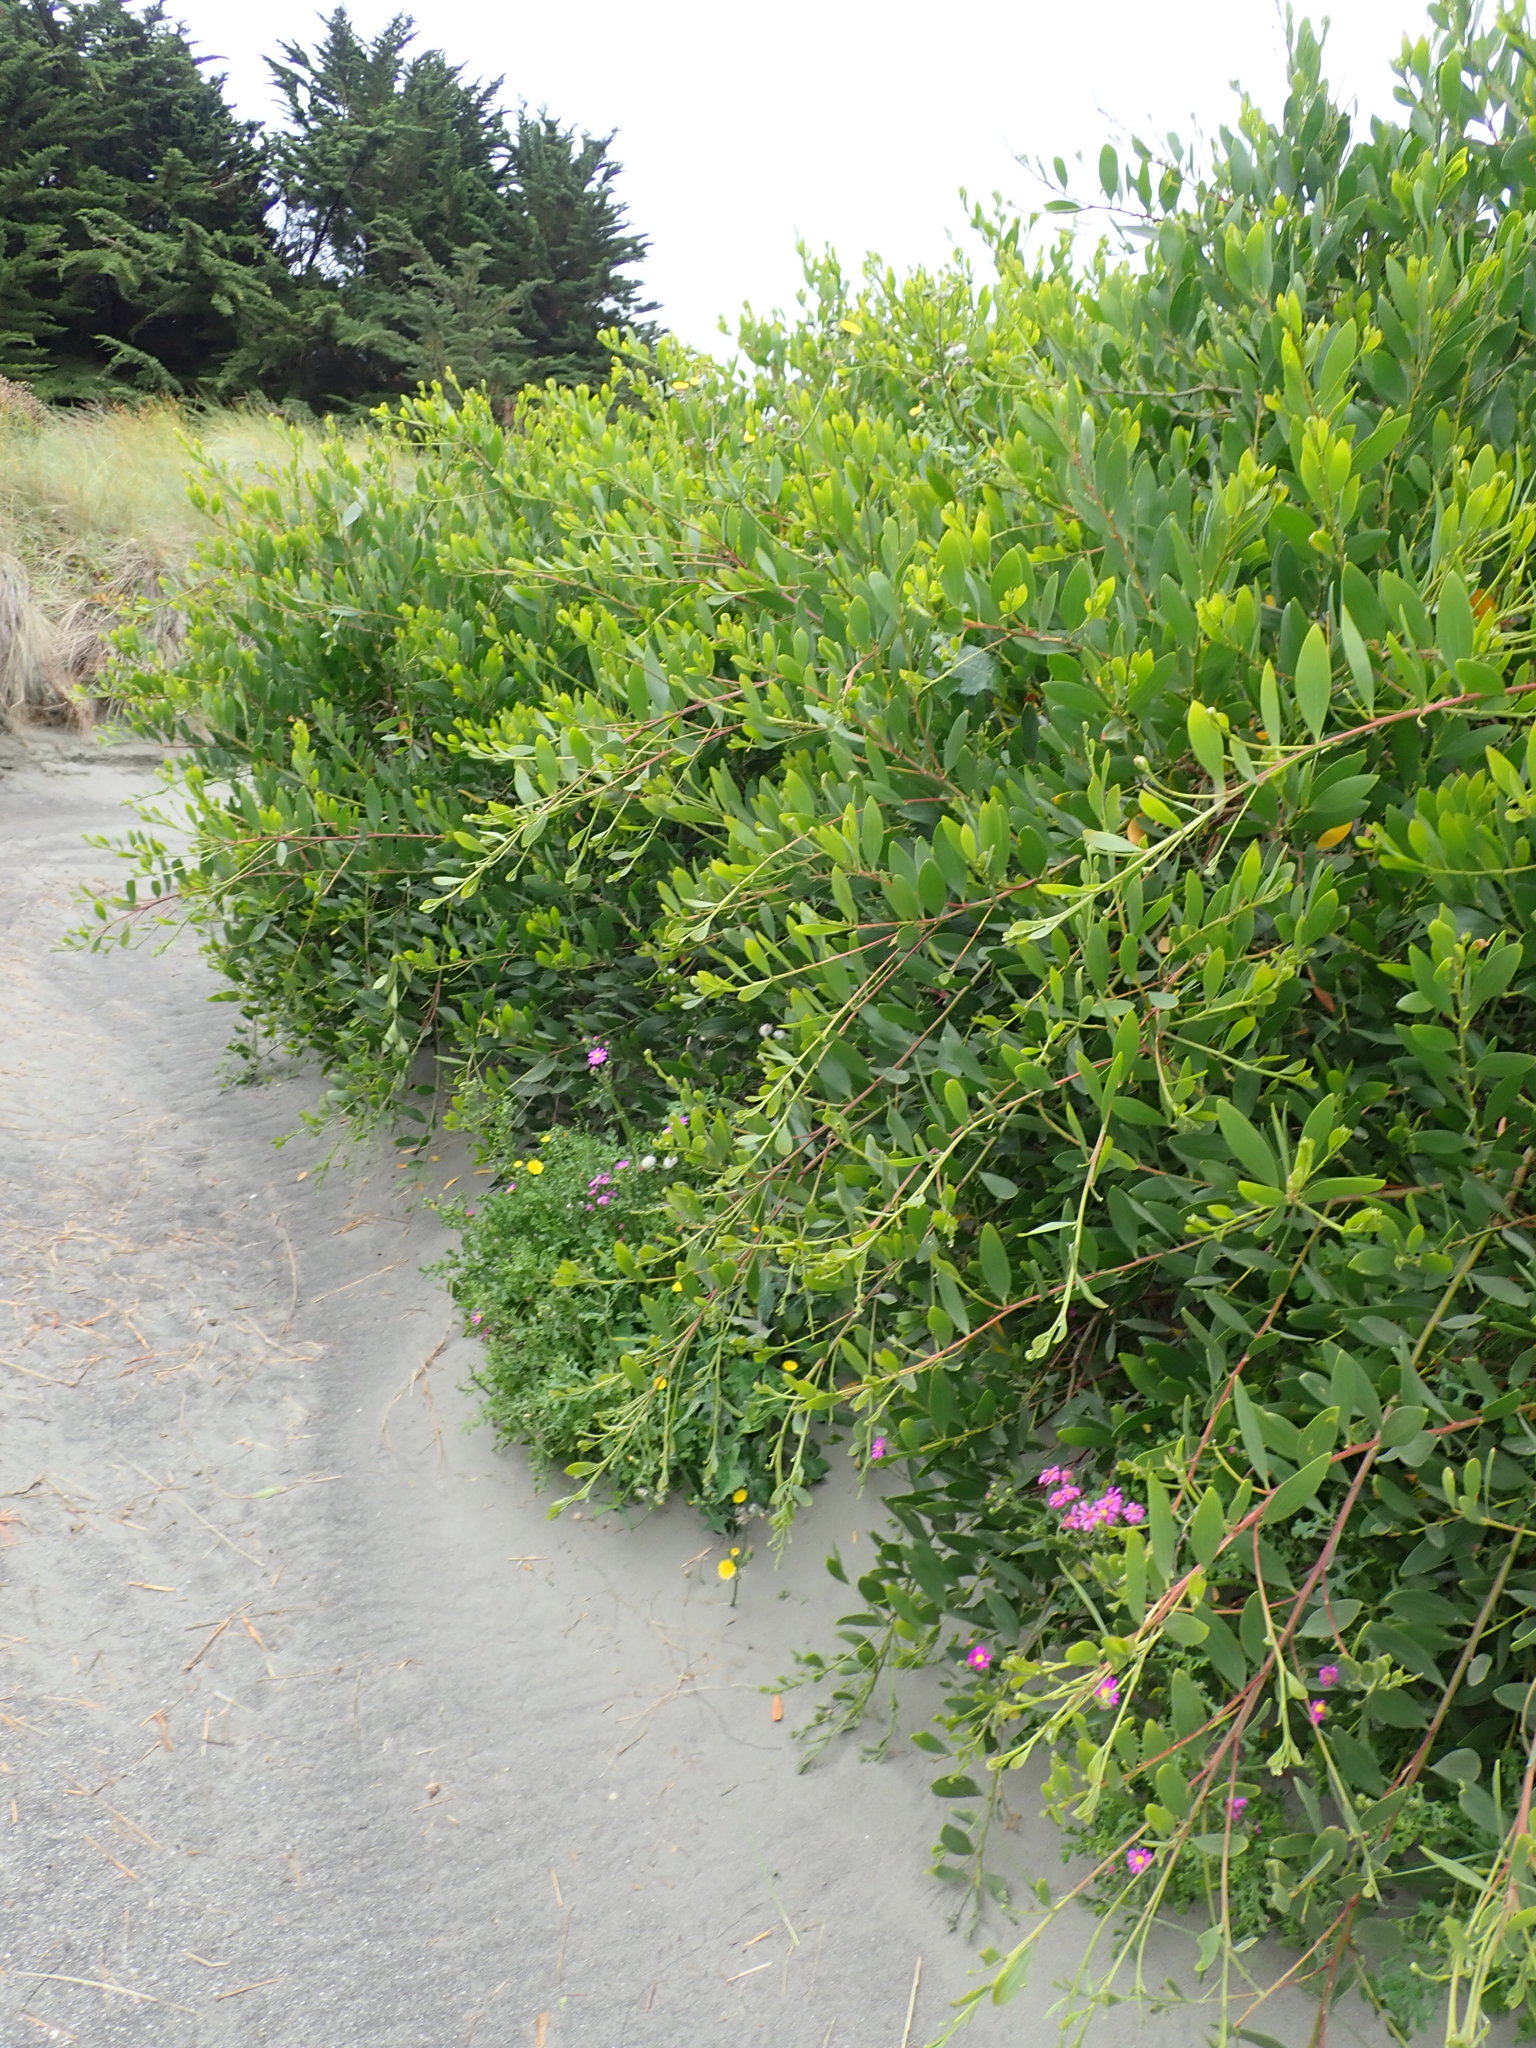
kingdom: Plantae
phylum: Tracheophyta
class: Magnoliopsida
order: Fabales
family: Fabaceae
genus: Acacia
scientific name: Acacia longifolia
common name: Sydney golden wattle
